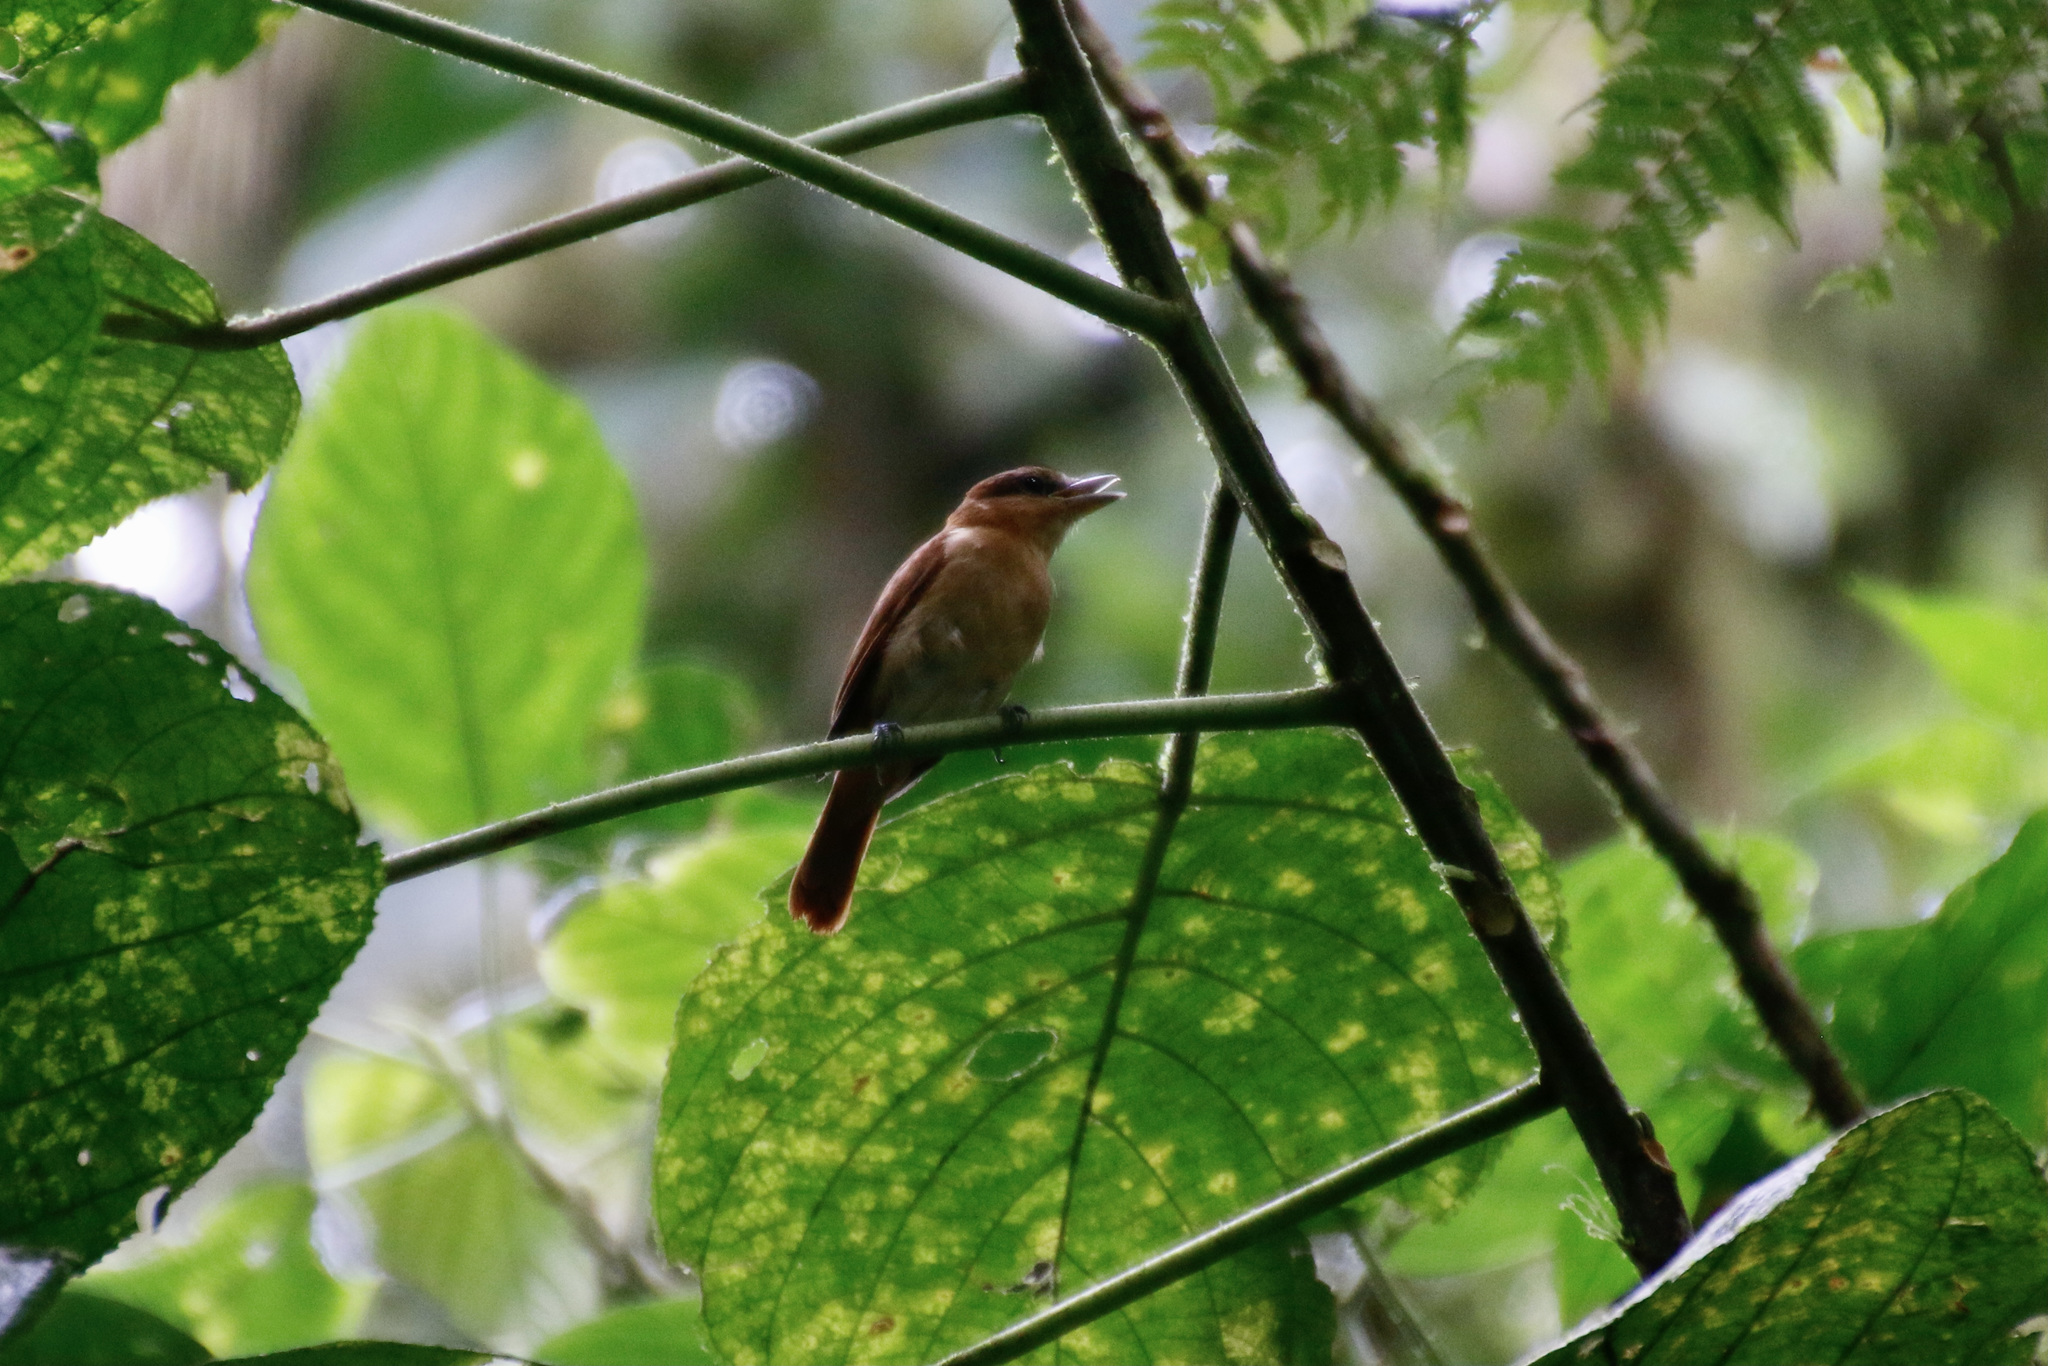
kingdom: Animalia
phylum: Chordata
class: Aves
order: Passeriformes
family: Cotingidae
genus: Pachyramphus
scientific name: Pachyramphus cinnamomeus
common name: Cinnamon becard
